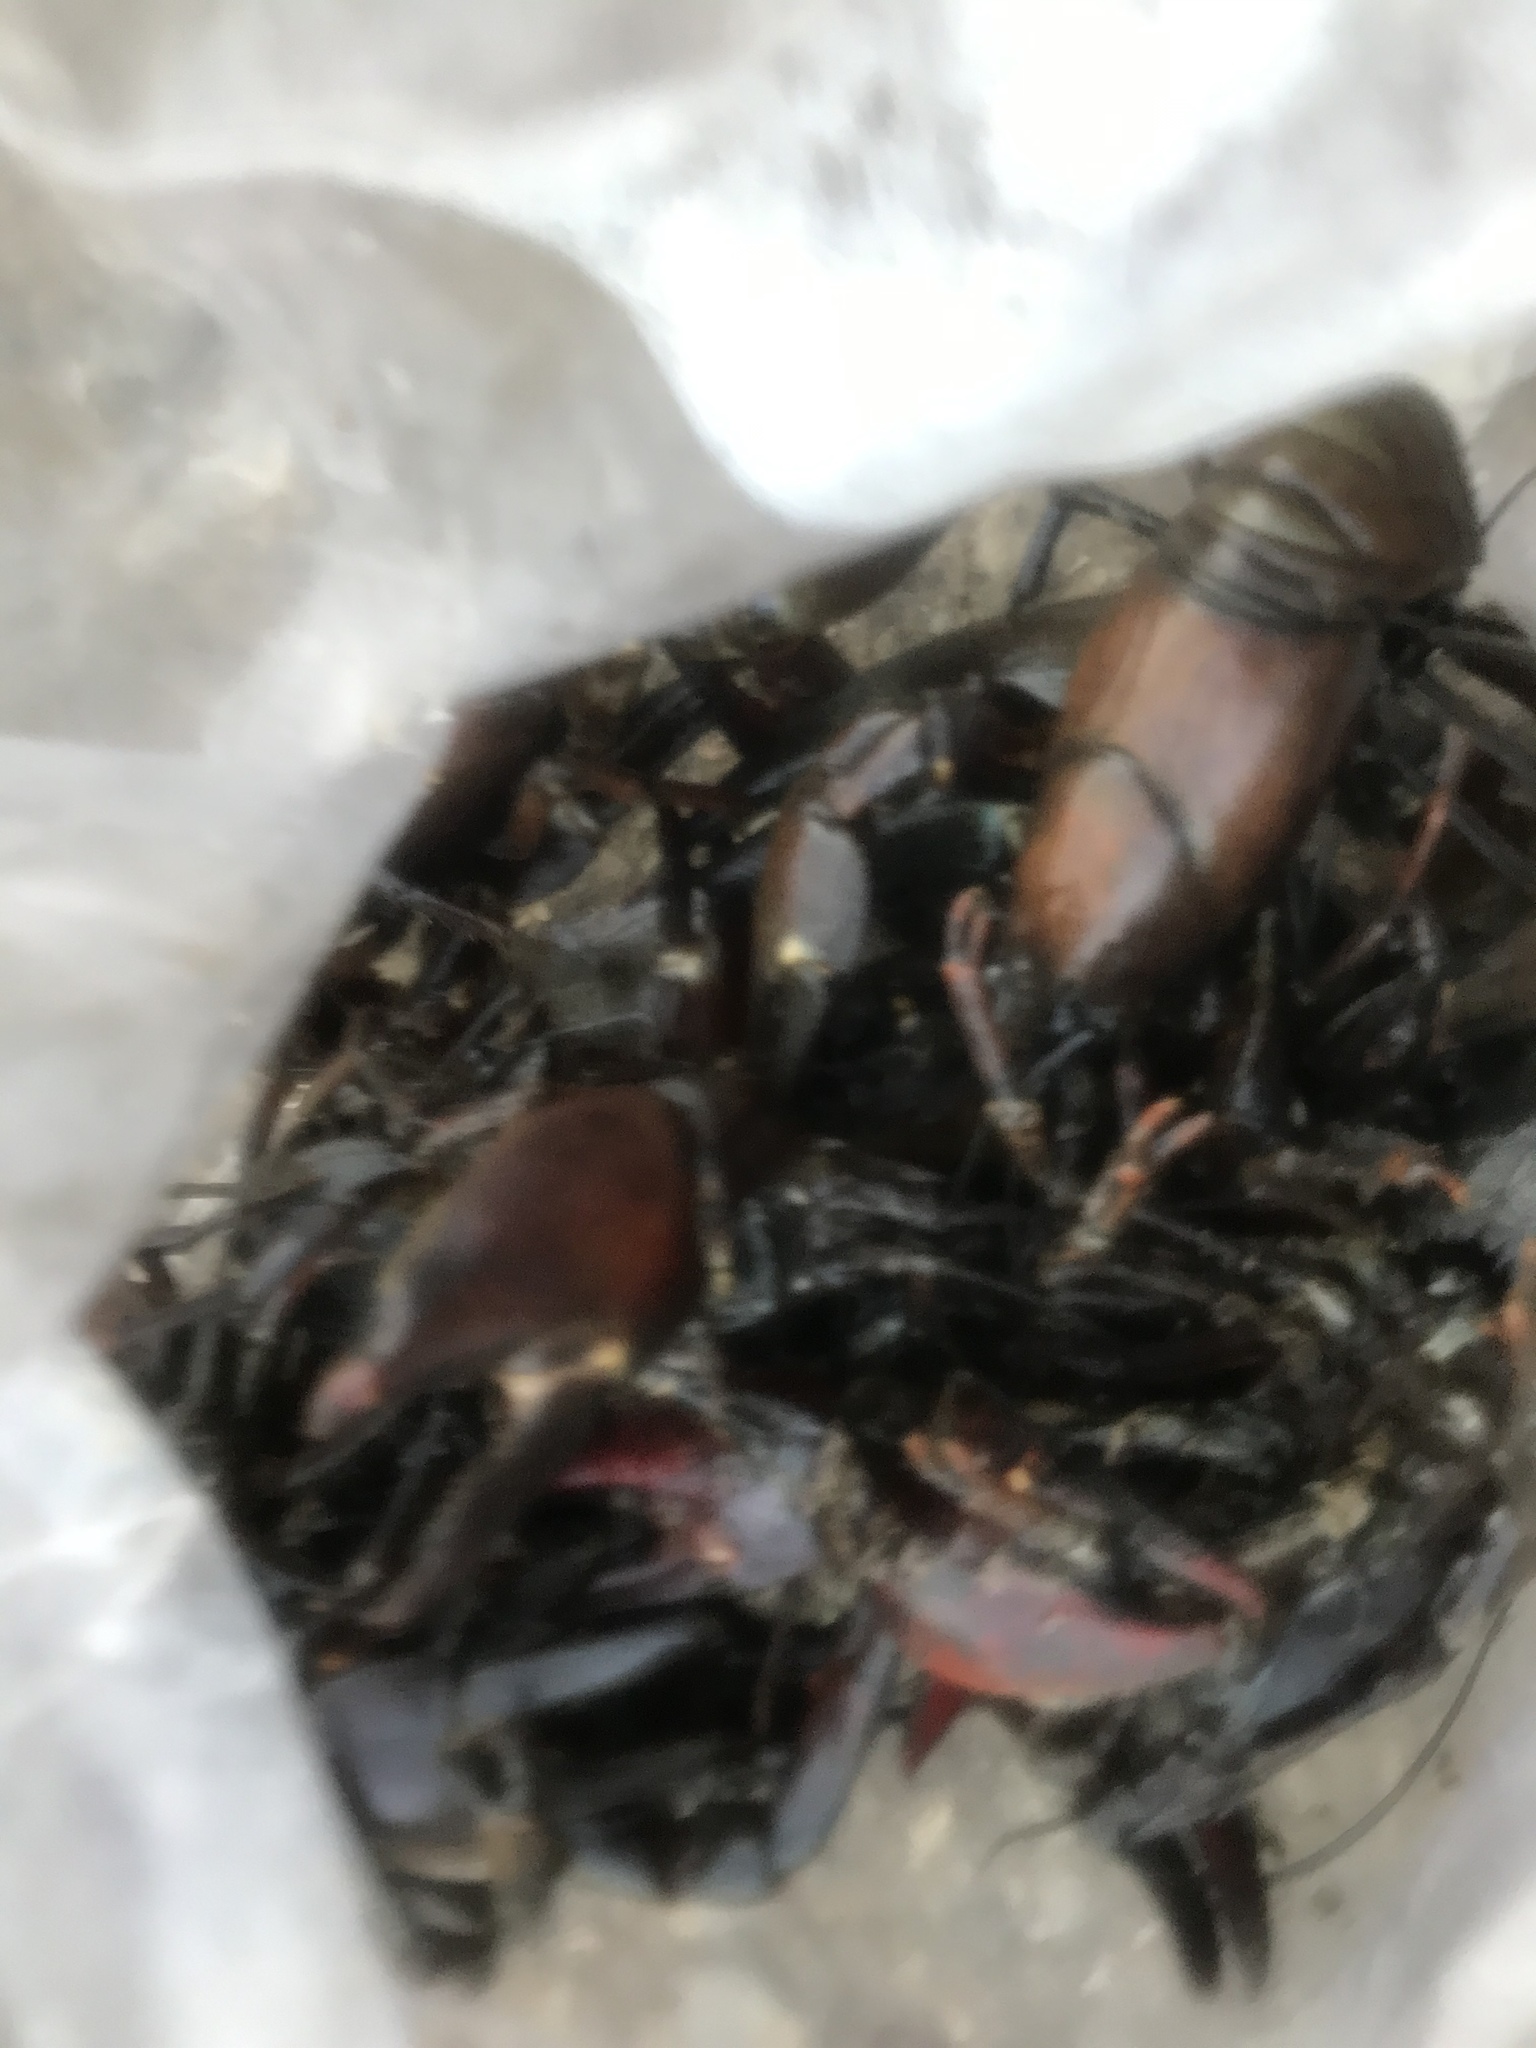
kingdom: Animalia
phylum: Arthropoda
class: Malacostraca
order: Decapoda
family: Astacidae
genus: Pacifastacus
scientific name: Pacifastacus leniusculus
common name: Signal crayfish
